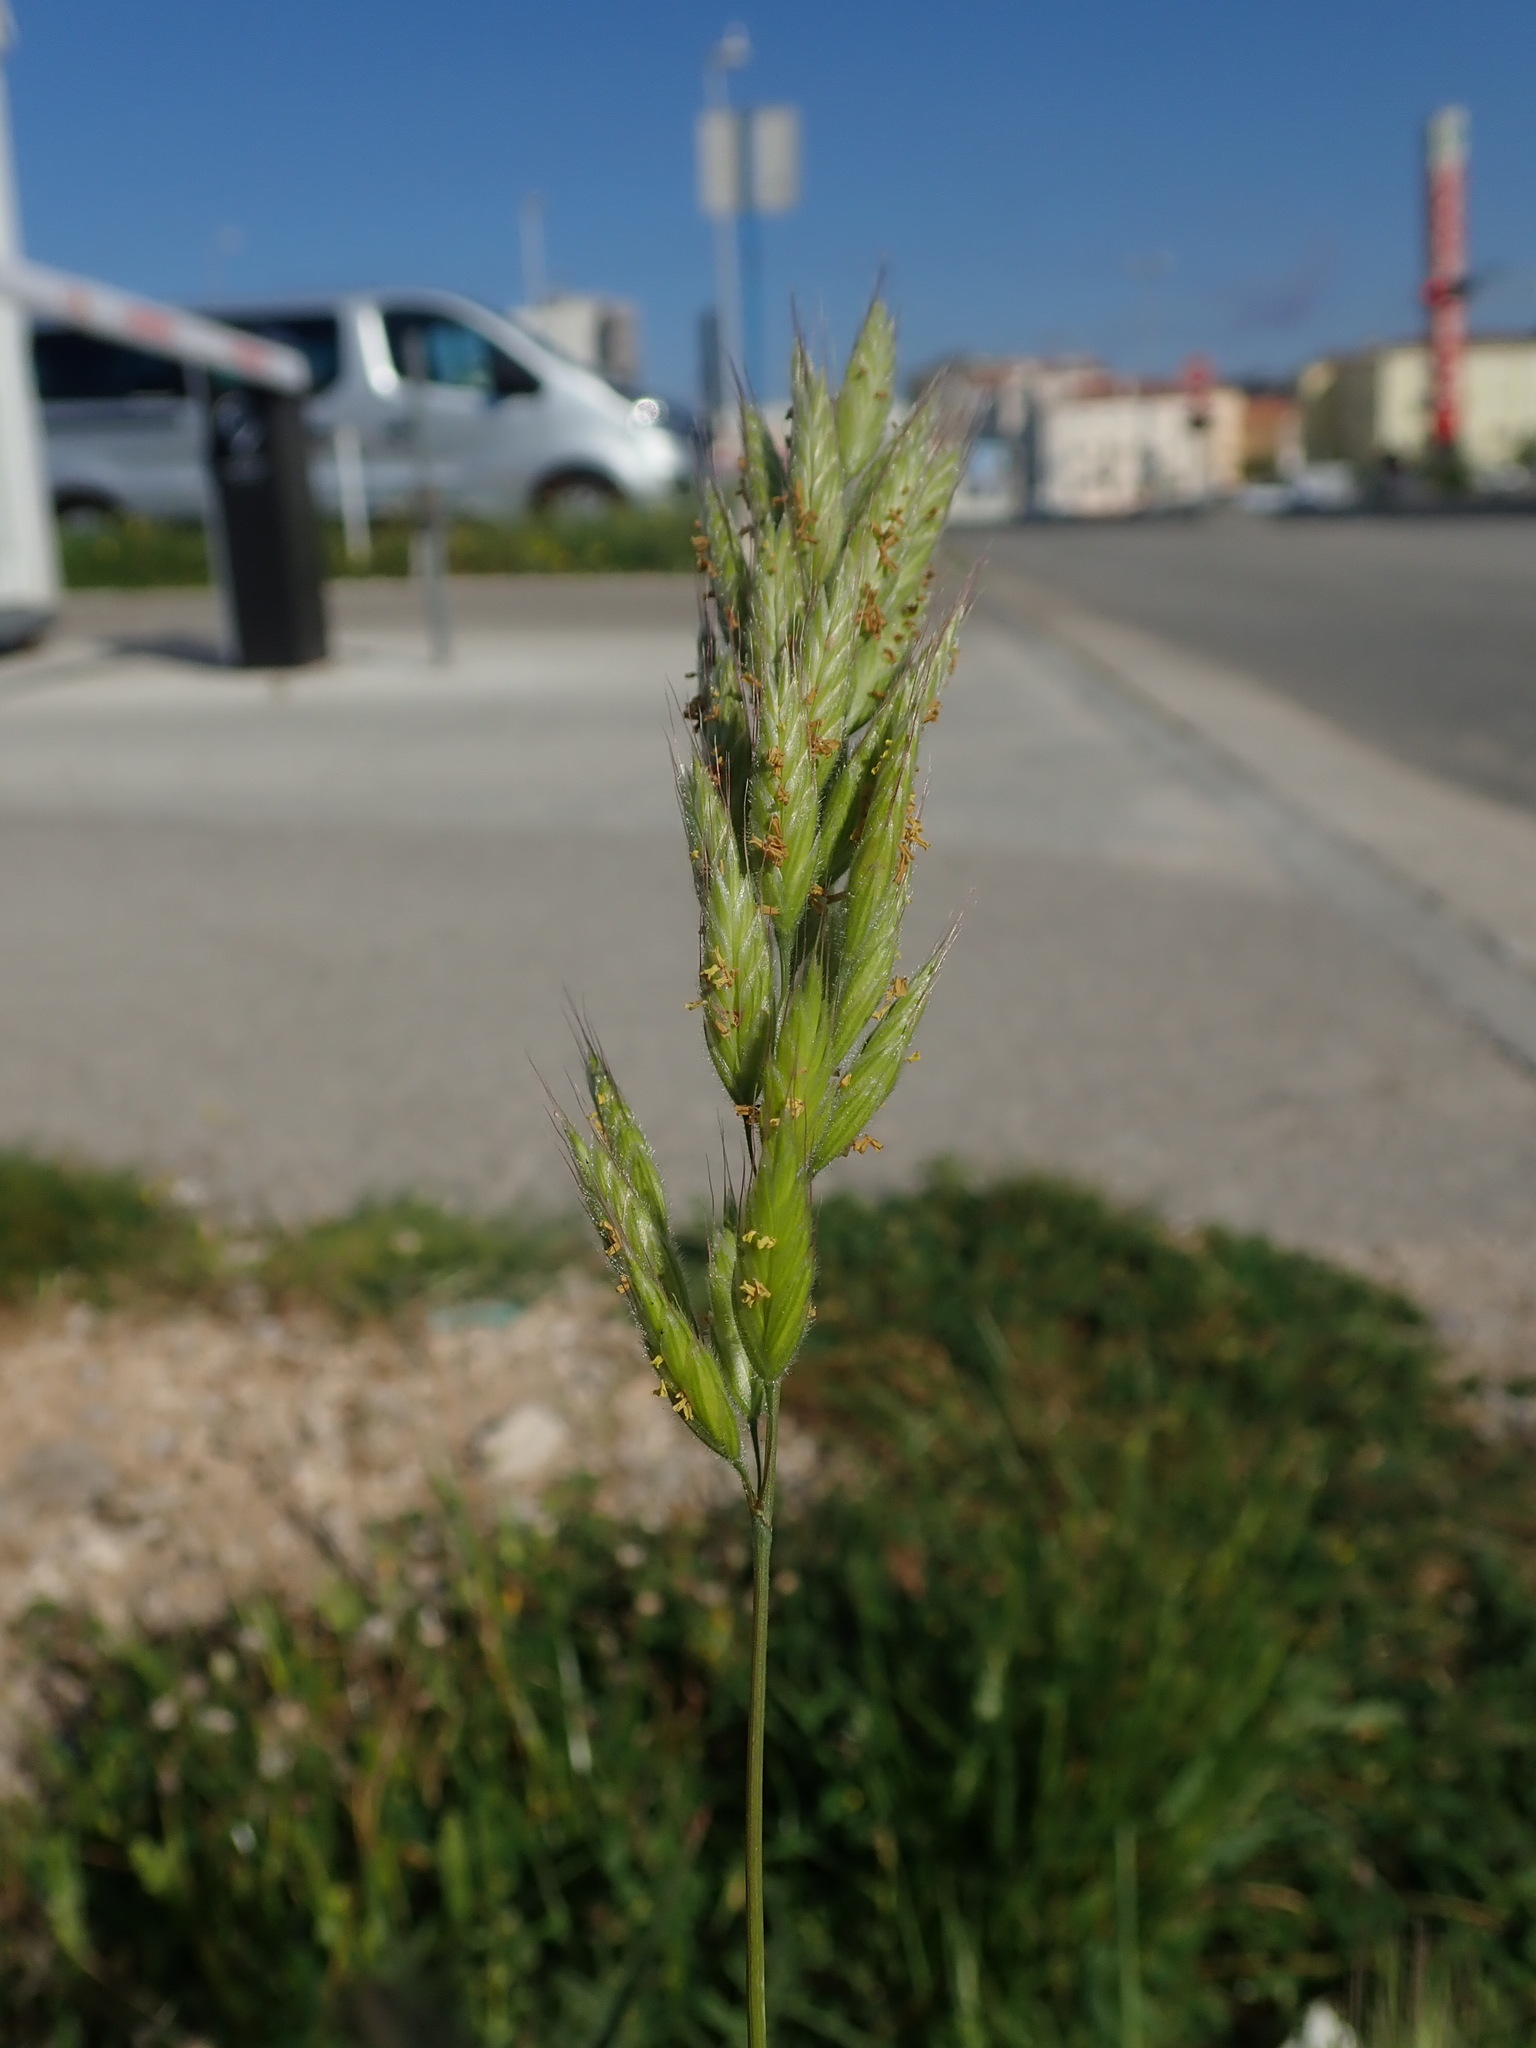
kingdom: Plantae
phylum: Tracheophyta
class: Liliopsida
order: Poales
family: Poaceae
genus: Bromus
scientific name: Bromus hordeaceus
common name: Soft brome
